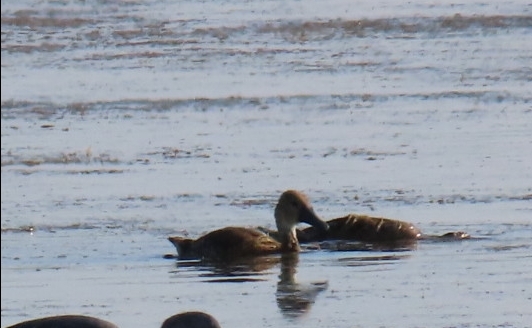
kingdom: Animalia
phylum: Chordata
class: Aves
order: Anseriformes
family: Anatidae
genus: Dendrocygna
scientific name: Dendrocygna bicolor
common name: Fulvous whistling duck
